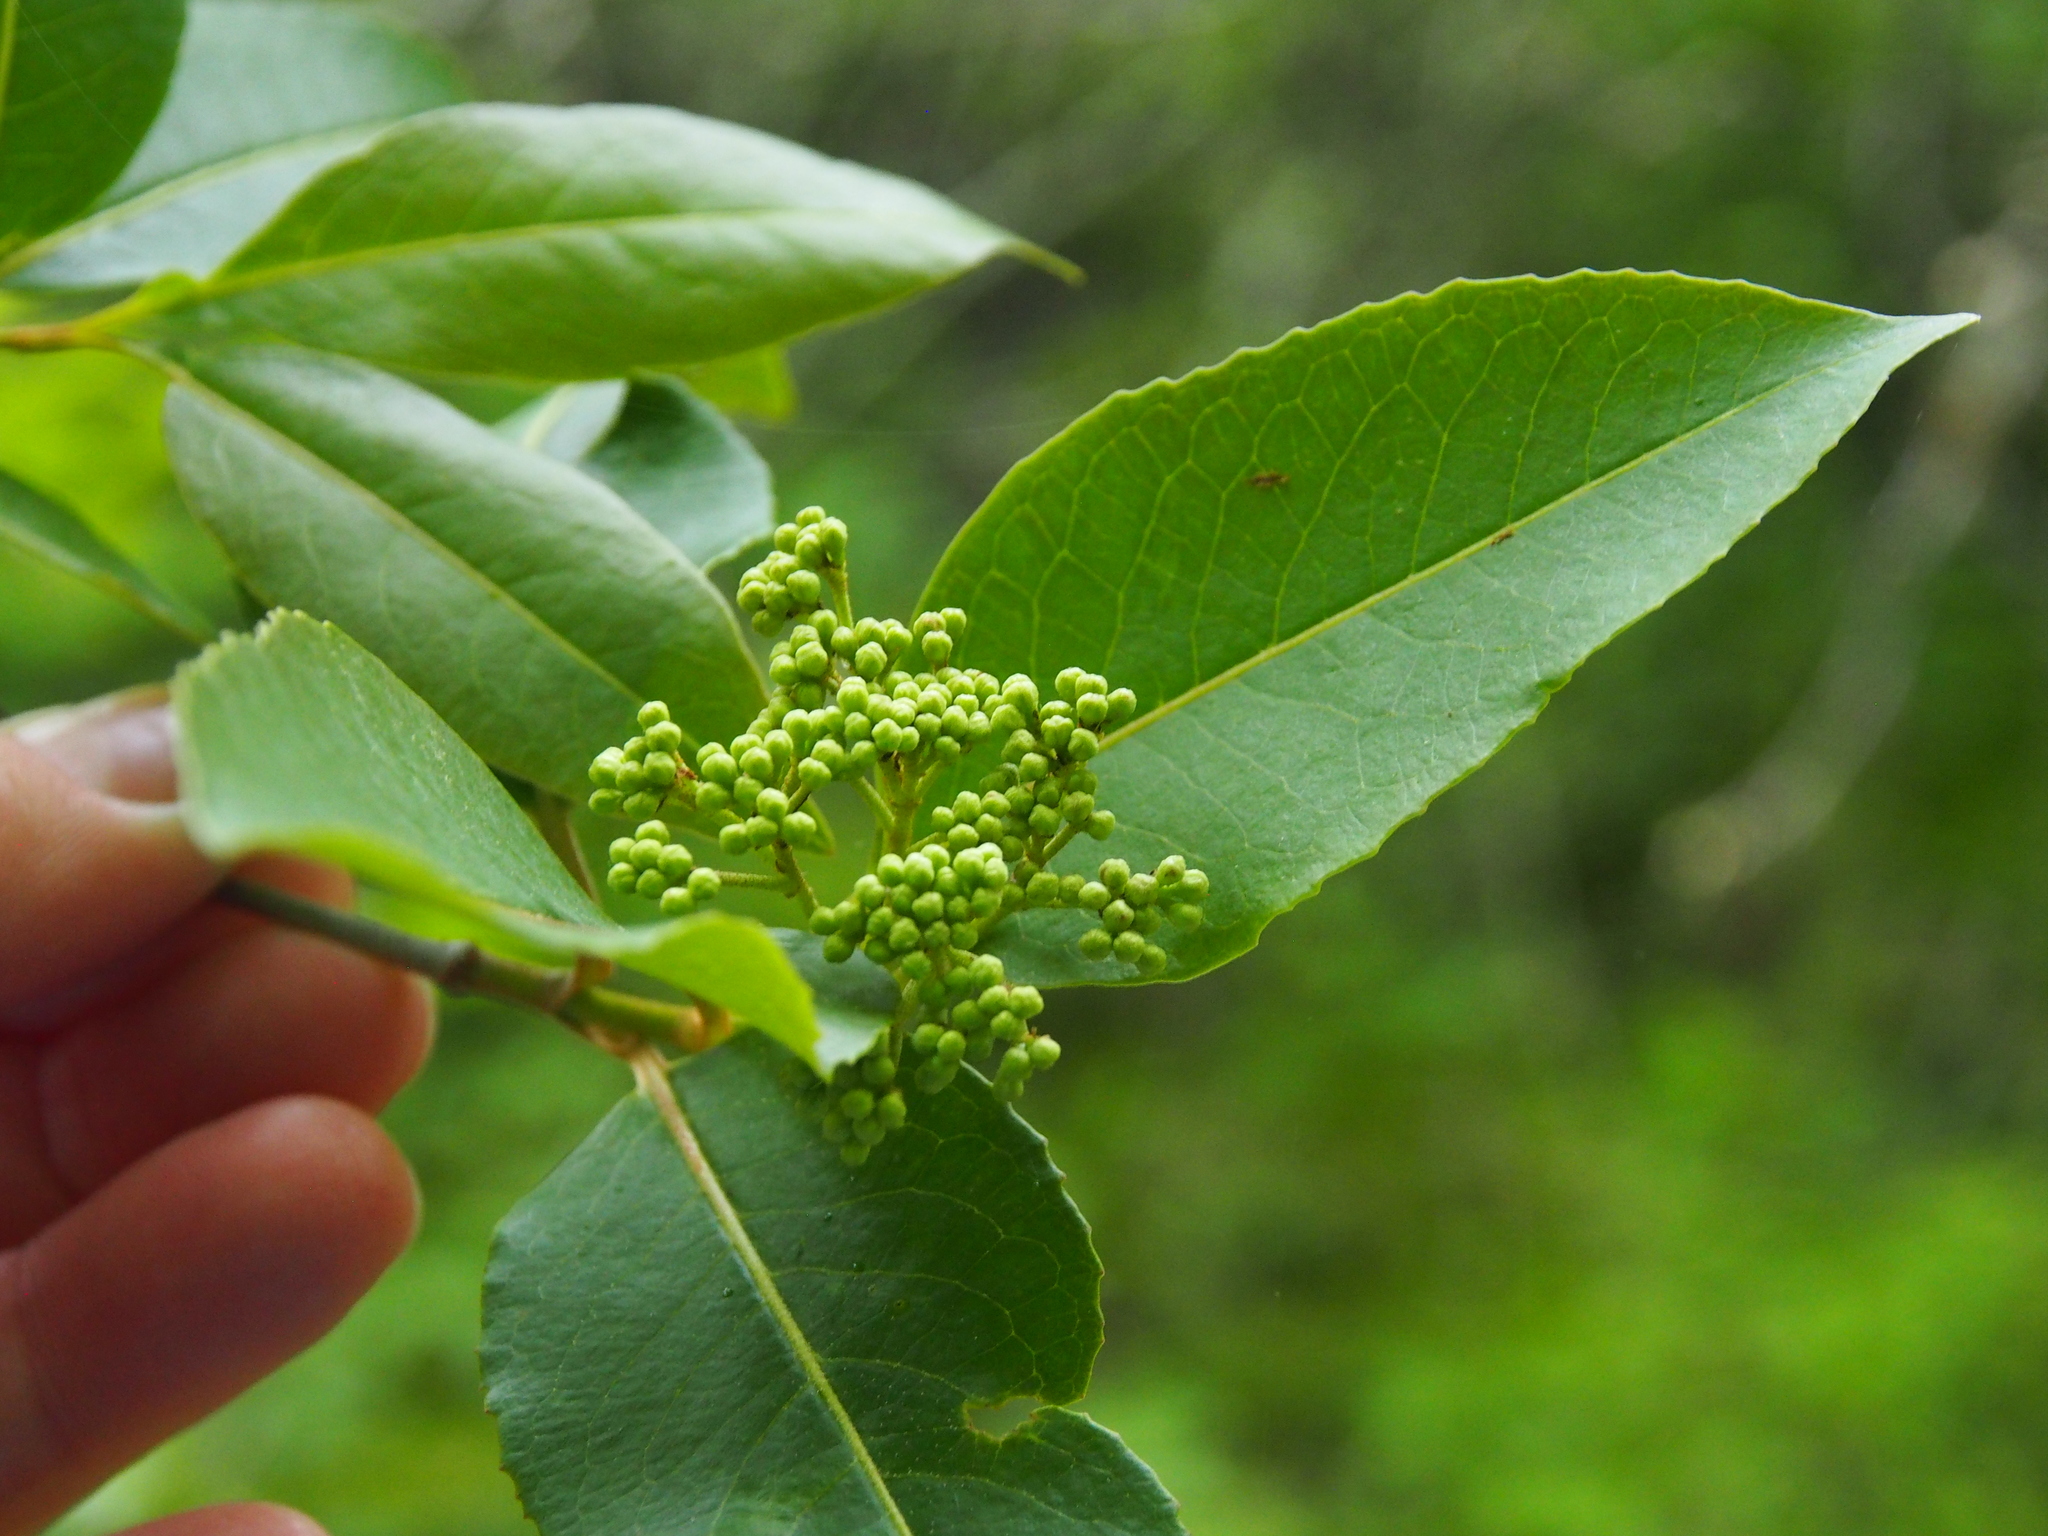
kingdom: Plantae
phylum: Tracheophyta
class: Magnoliopsida
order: Dipsacales
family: Viburnaceae
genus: Viburnum
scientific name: Viburnum cassinoides
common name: Swamp haw
